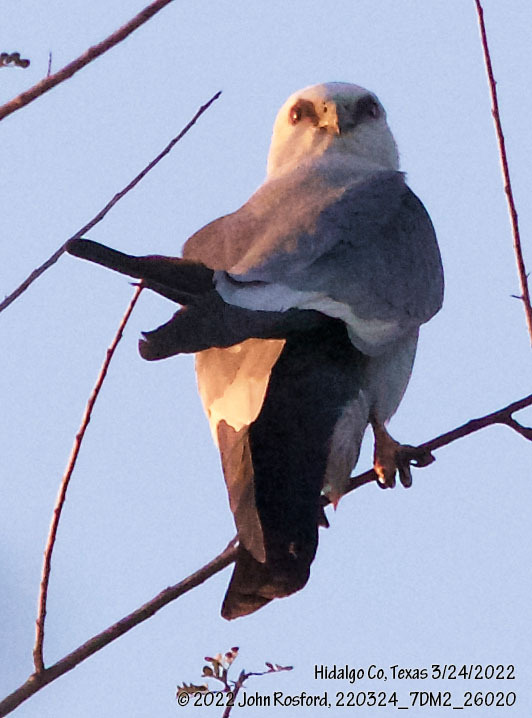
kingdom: Animalia
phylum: Chordata
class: Aves
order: Accipitriformes
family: Accipitridae
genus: Ictinia
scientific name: Ictinia mississippiensis
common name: Mississippi kite
